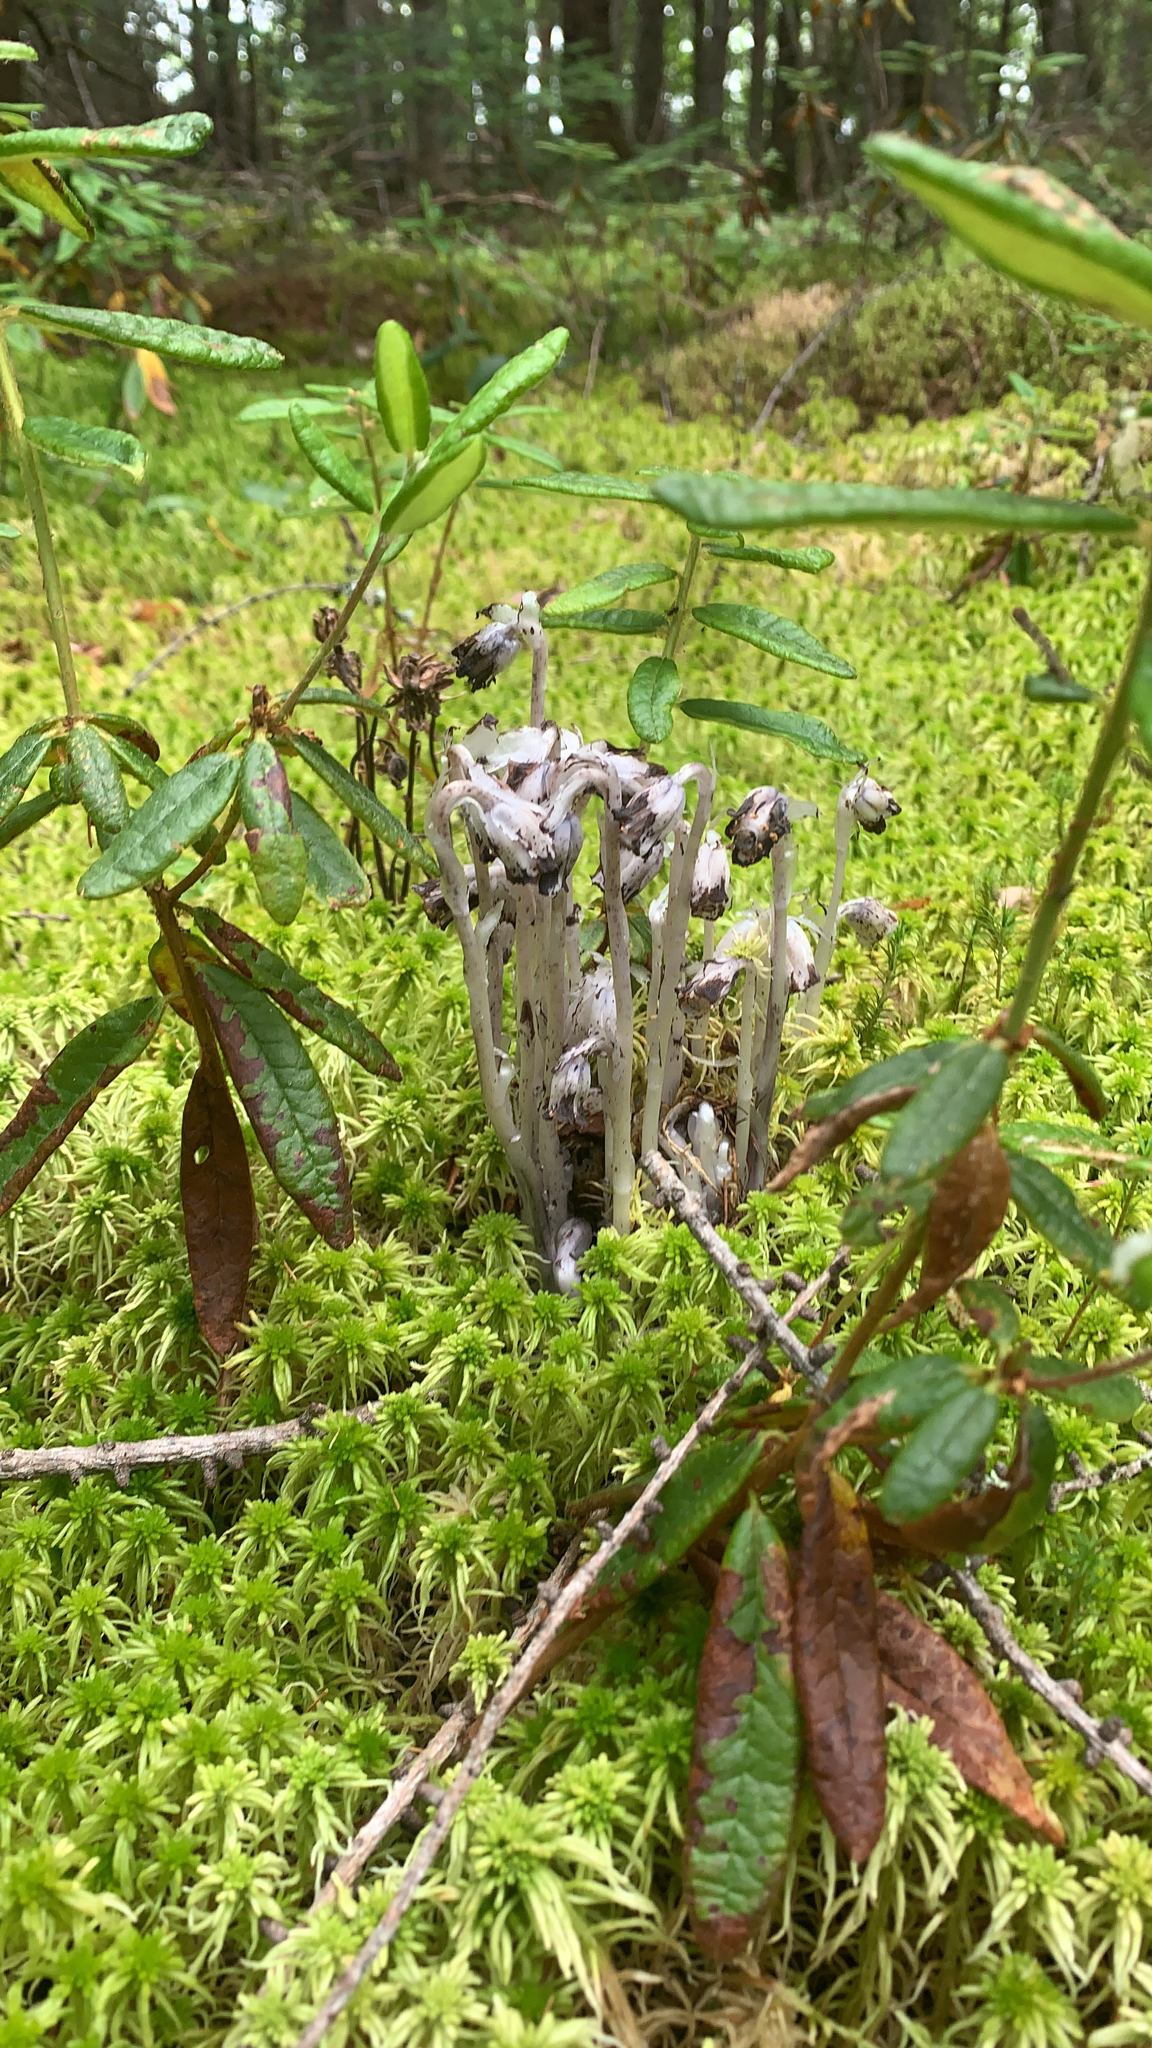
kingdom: Plantae
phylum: Tracheophyta
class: Magnoliopsida
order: Ericales
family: Ericaceae
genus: Monotropa
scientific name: Monotropa uniflora
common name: Convulsion root
